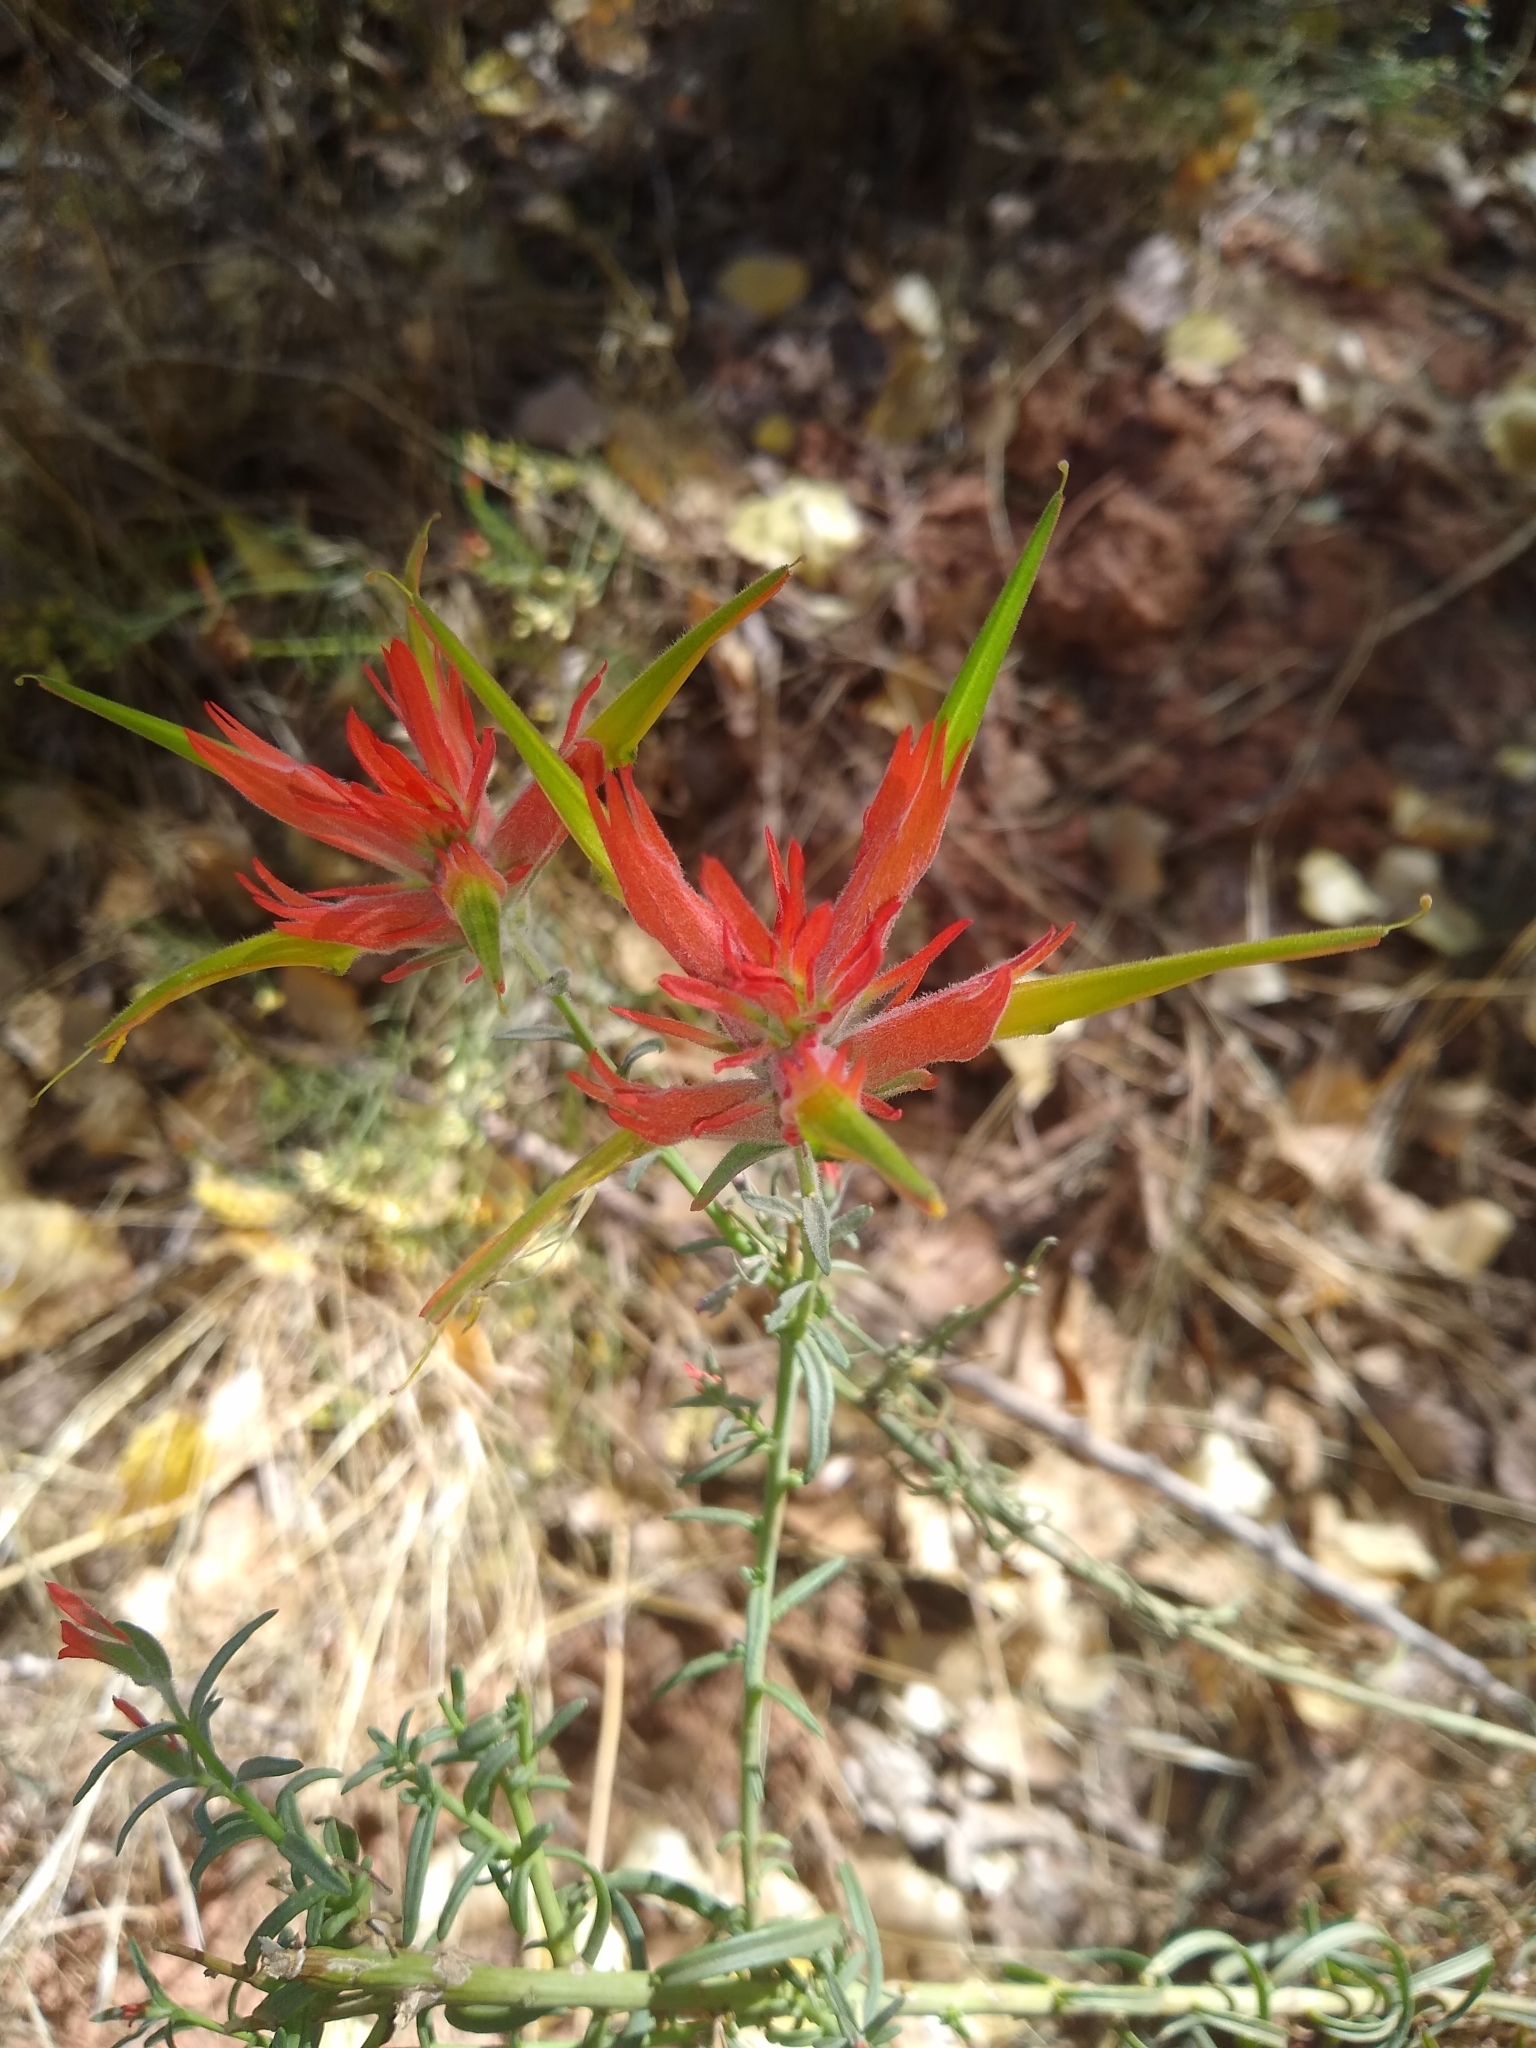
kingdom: Plantae
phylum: Tracheophyta
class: Magnoliopsida
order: Lamiales
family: Orobanchaceae
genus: Castilleja
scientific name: Castilleja linariifolia
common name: Wyoming paintbrush
